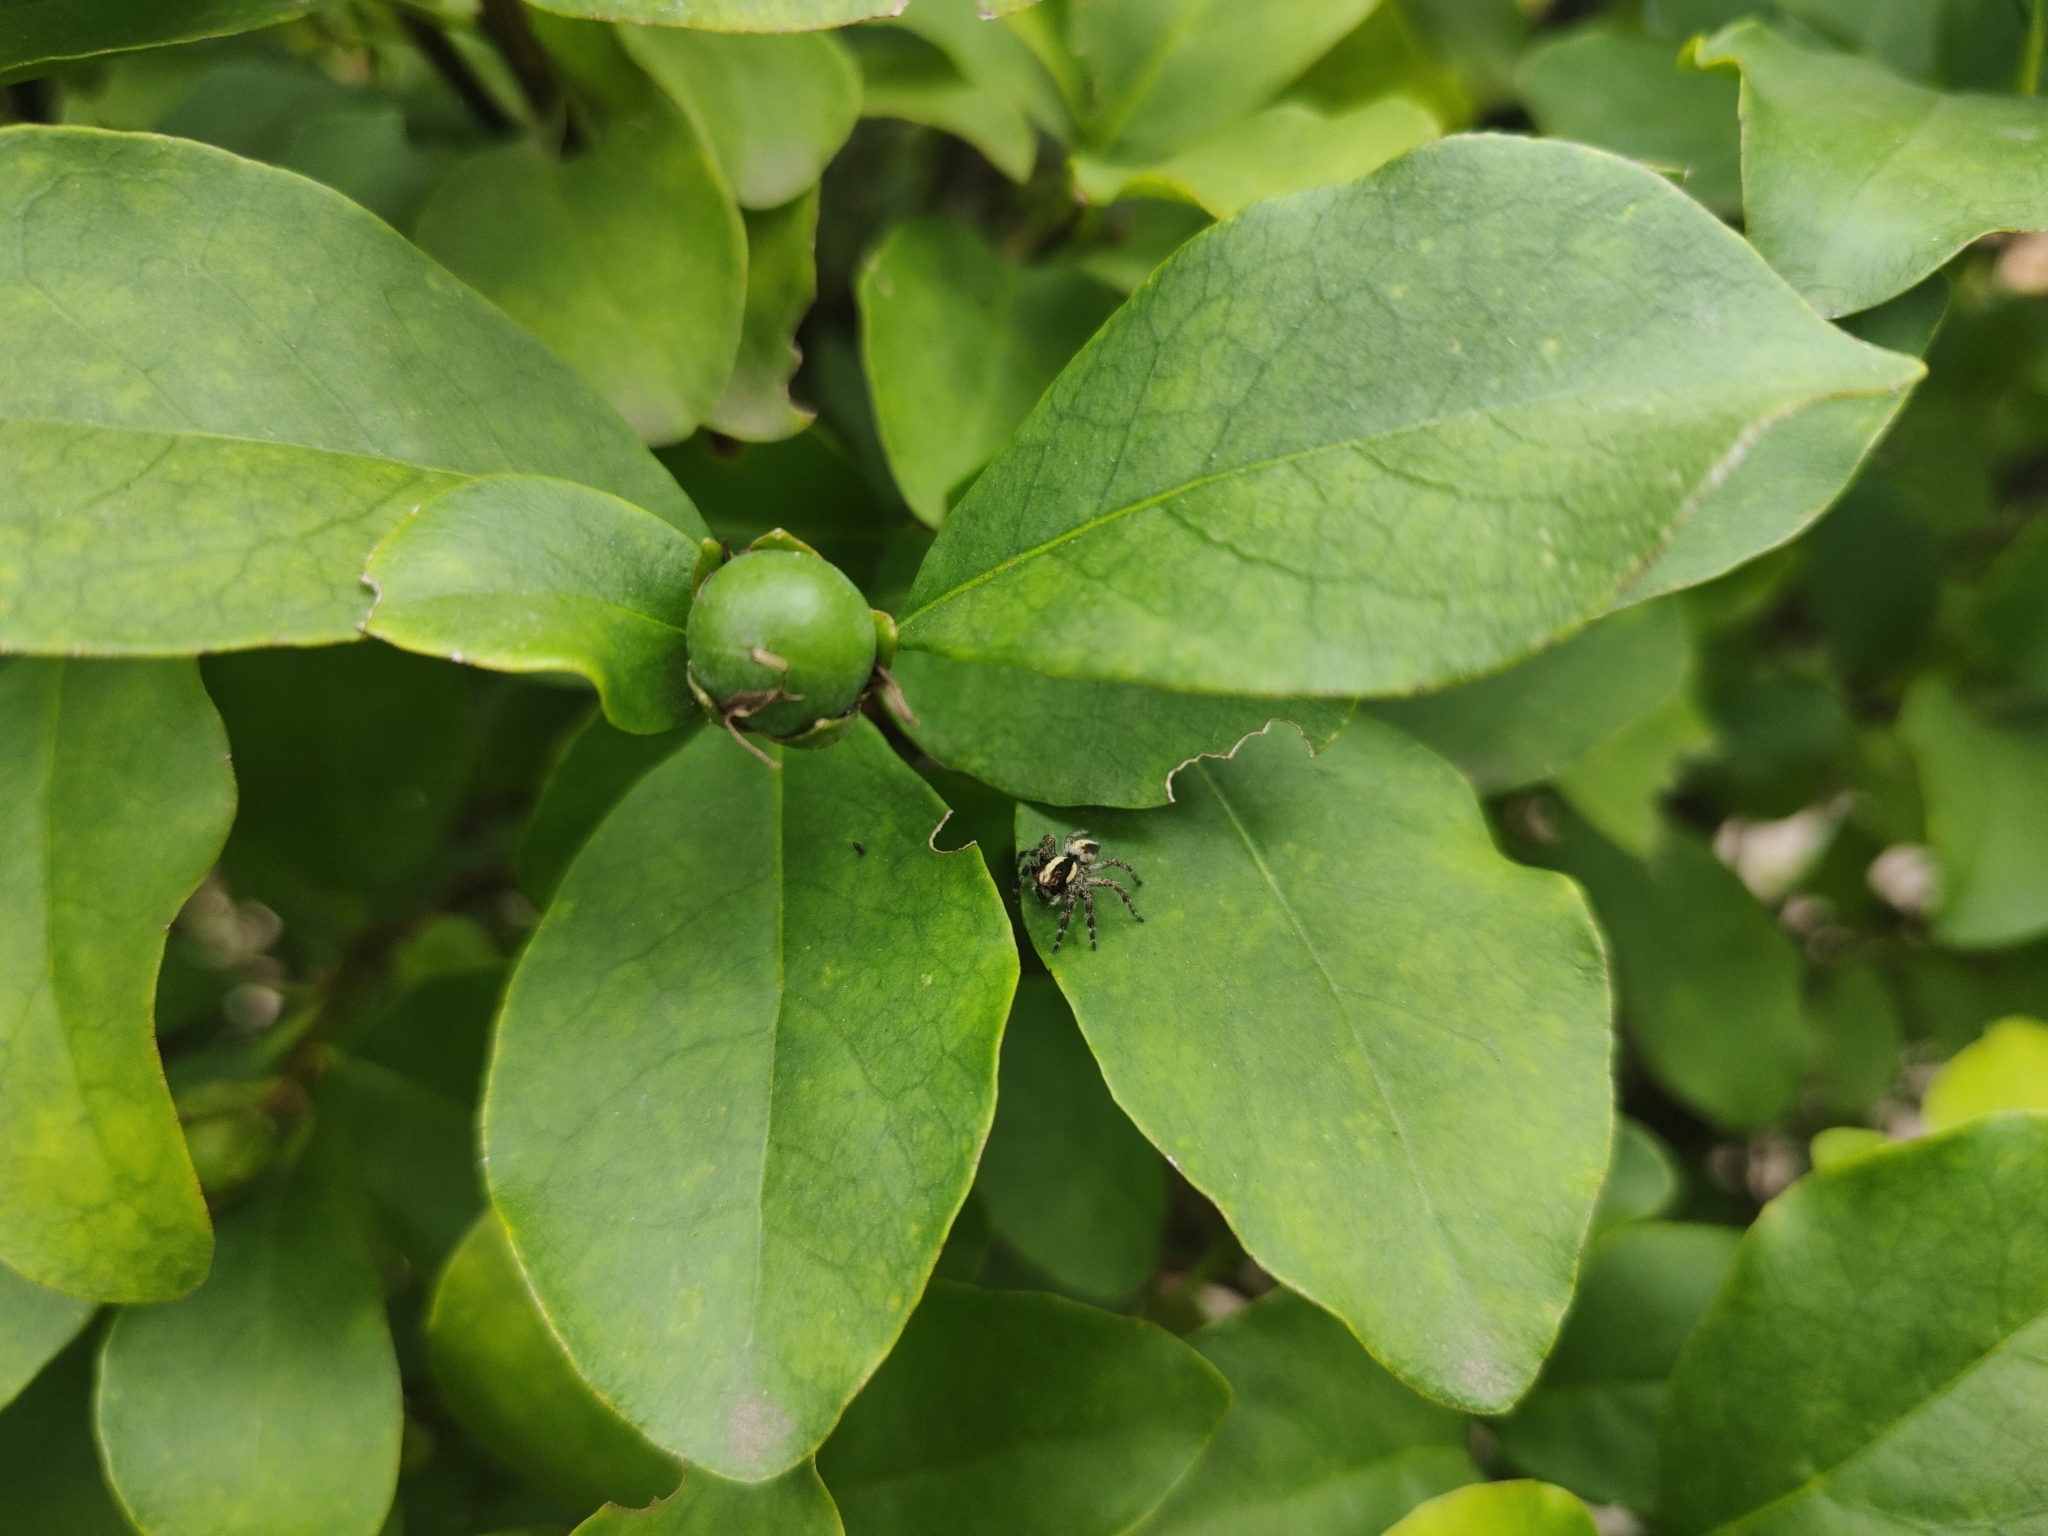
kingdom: Animalia
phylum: Arthropoda
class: Arachnida
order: Araneae
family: Salticidae
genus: Megafreya
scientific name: Megafreya sutrix
